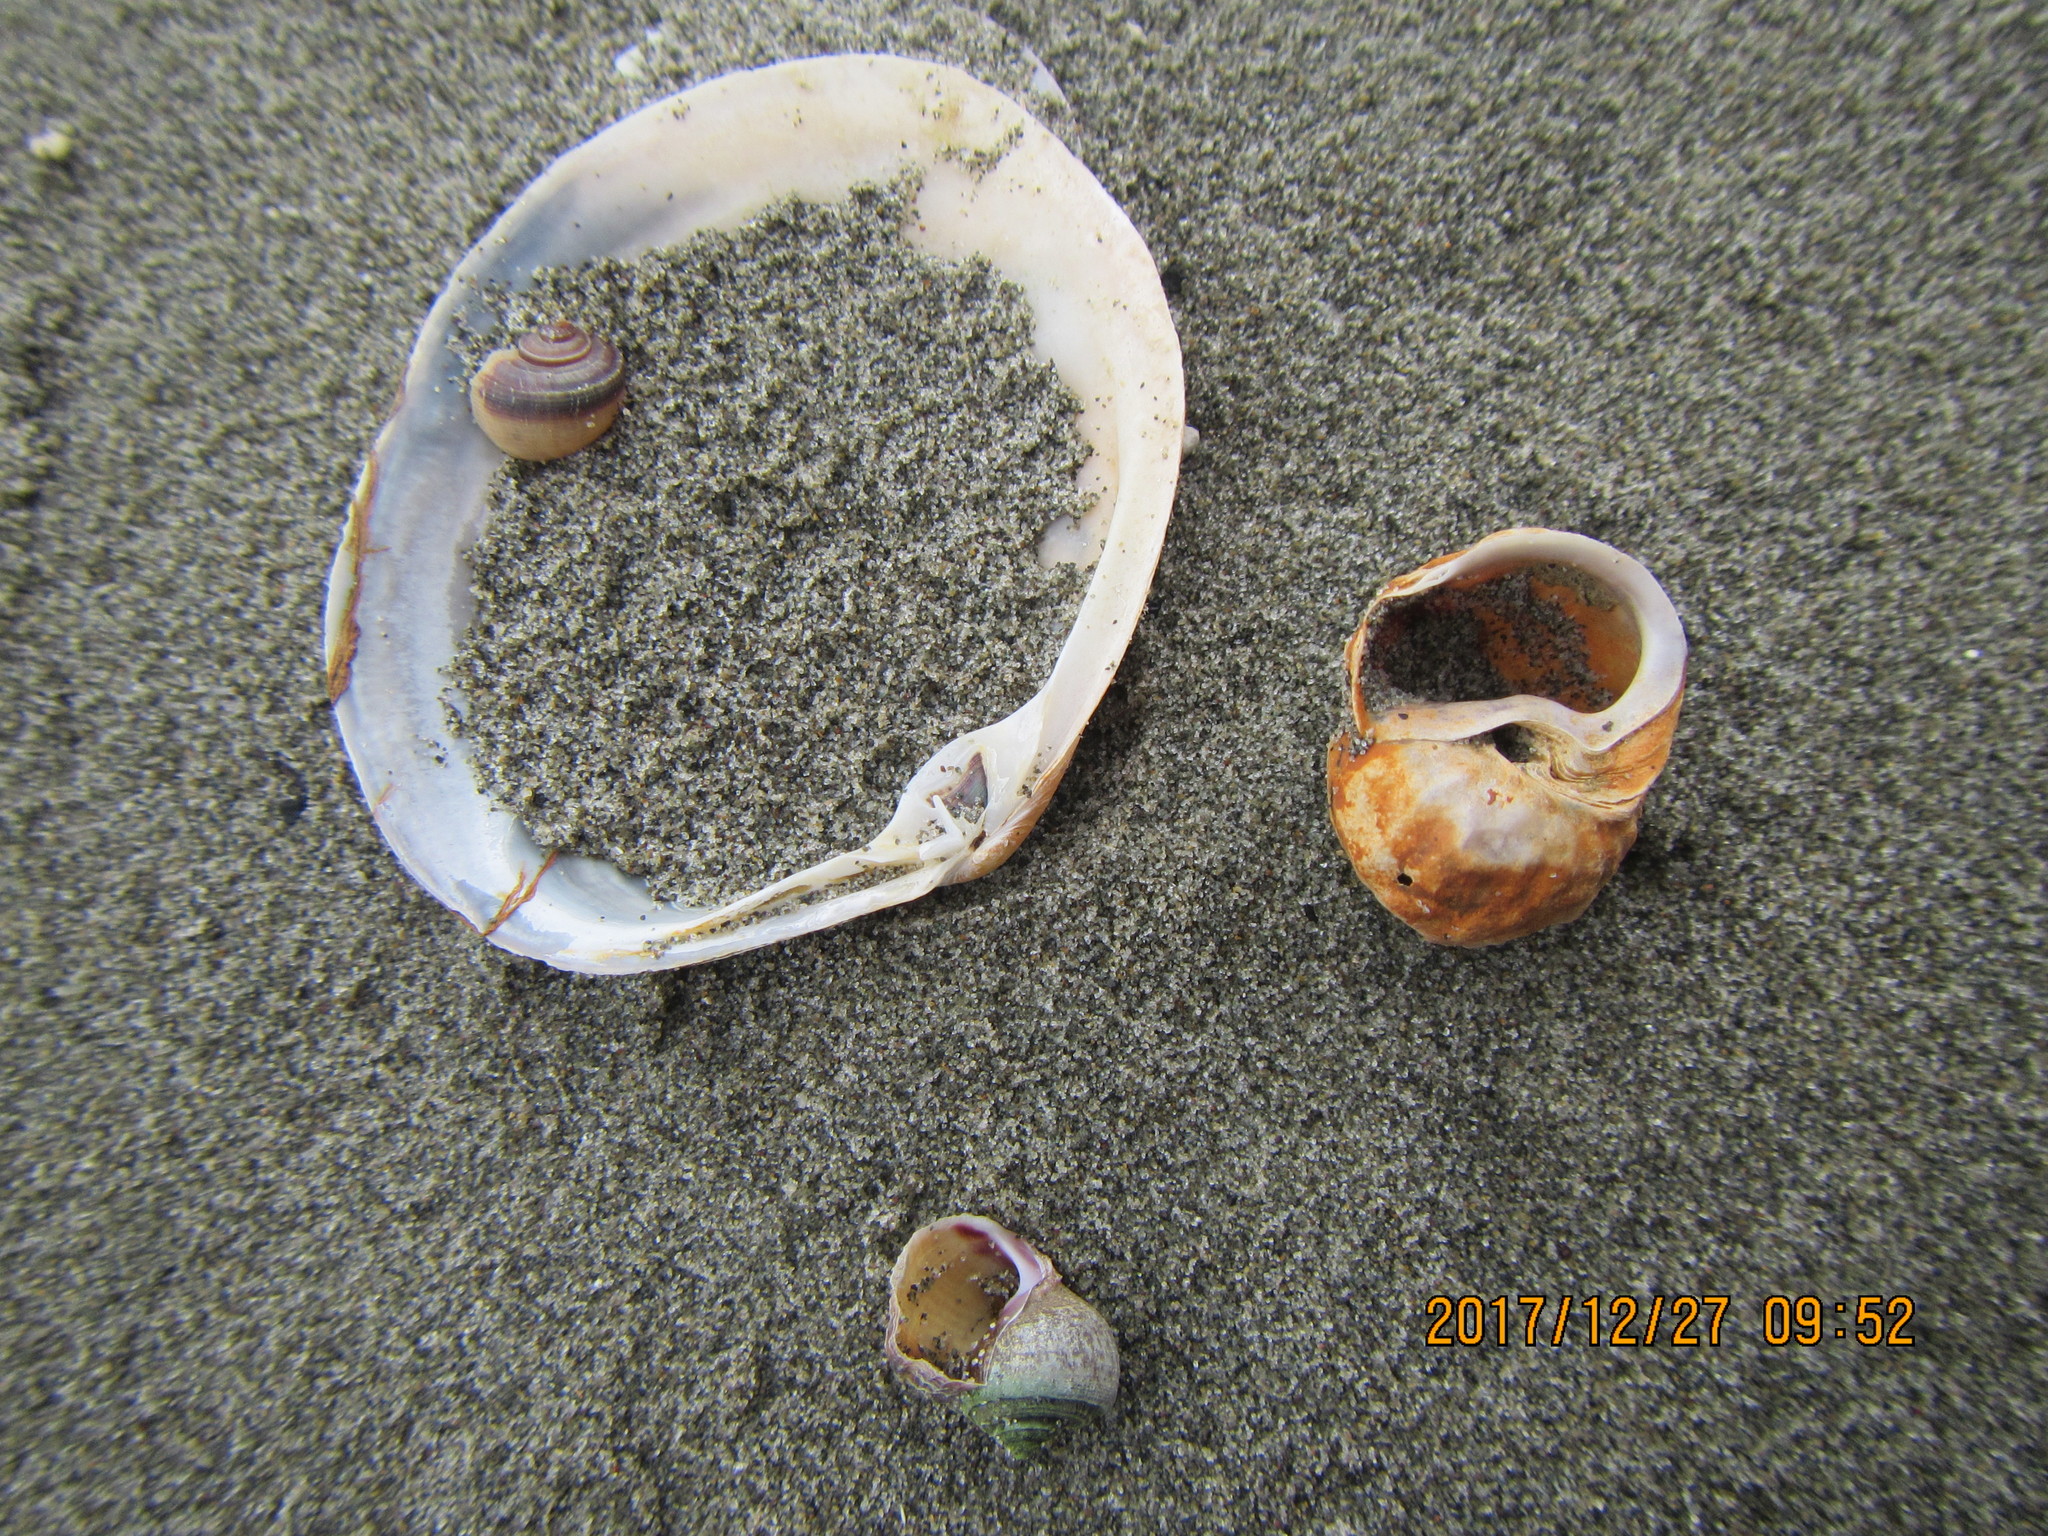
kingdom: Animalia
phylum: Mollusca
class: Gastropoda
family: Amphibolidae
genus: Amphibola
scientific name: Amphibola crenata
